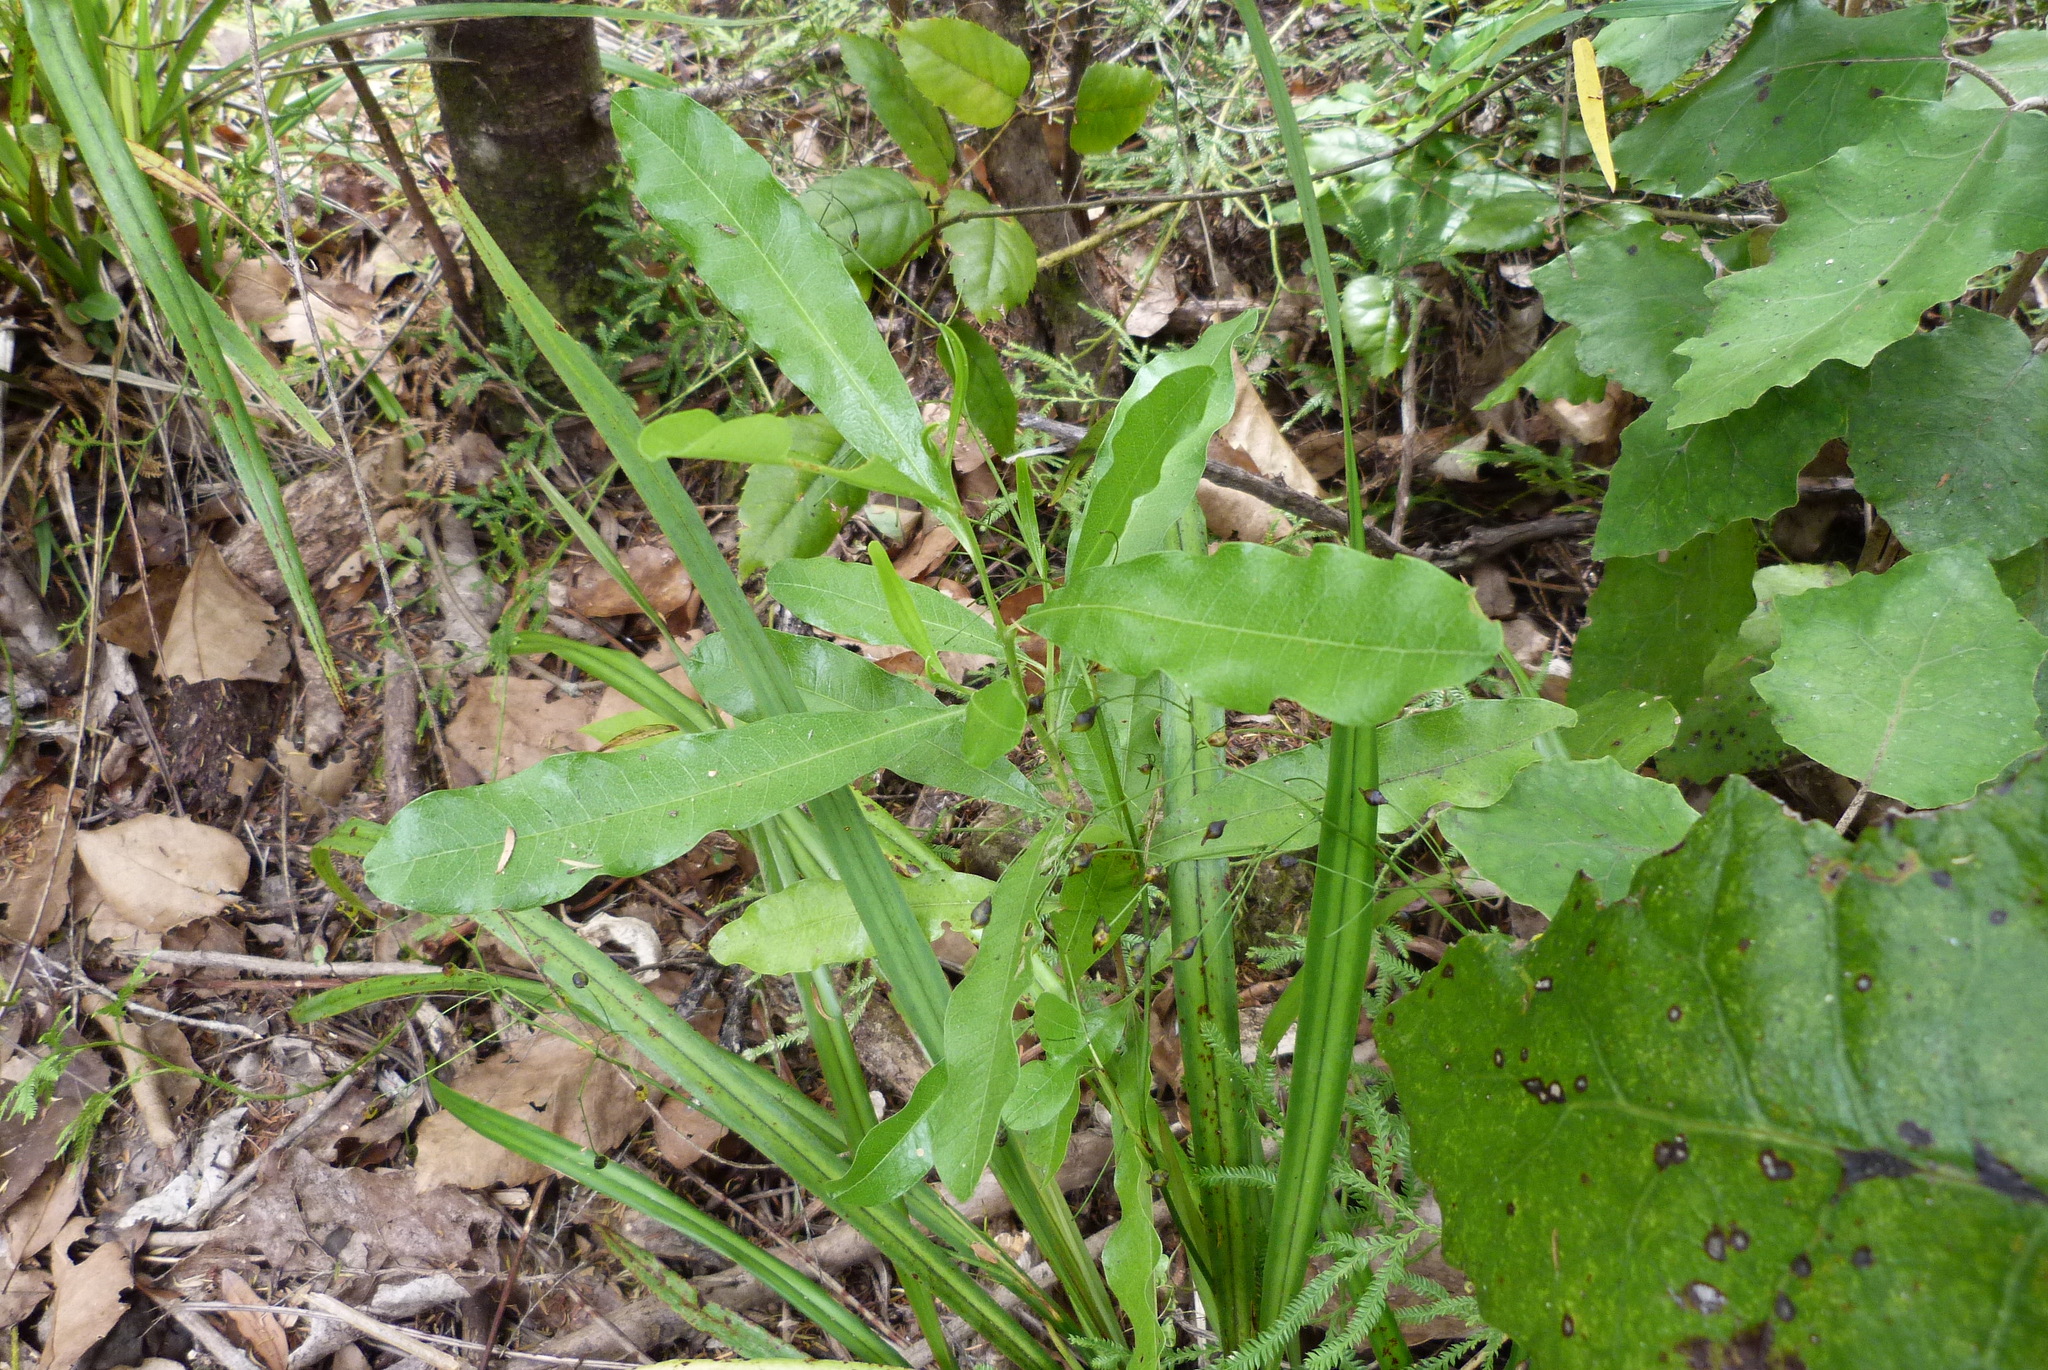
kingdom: Plantae
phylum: Tracheophyta
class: Magnoliopsida
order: Sapindales
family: Sapindaceae
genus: Dodonaea
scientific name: Dodonaea viscosa
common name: Hopbush
